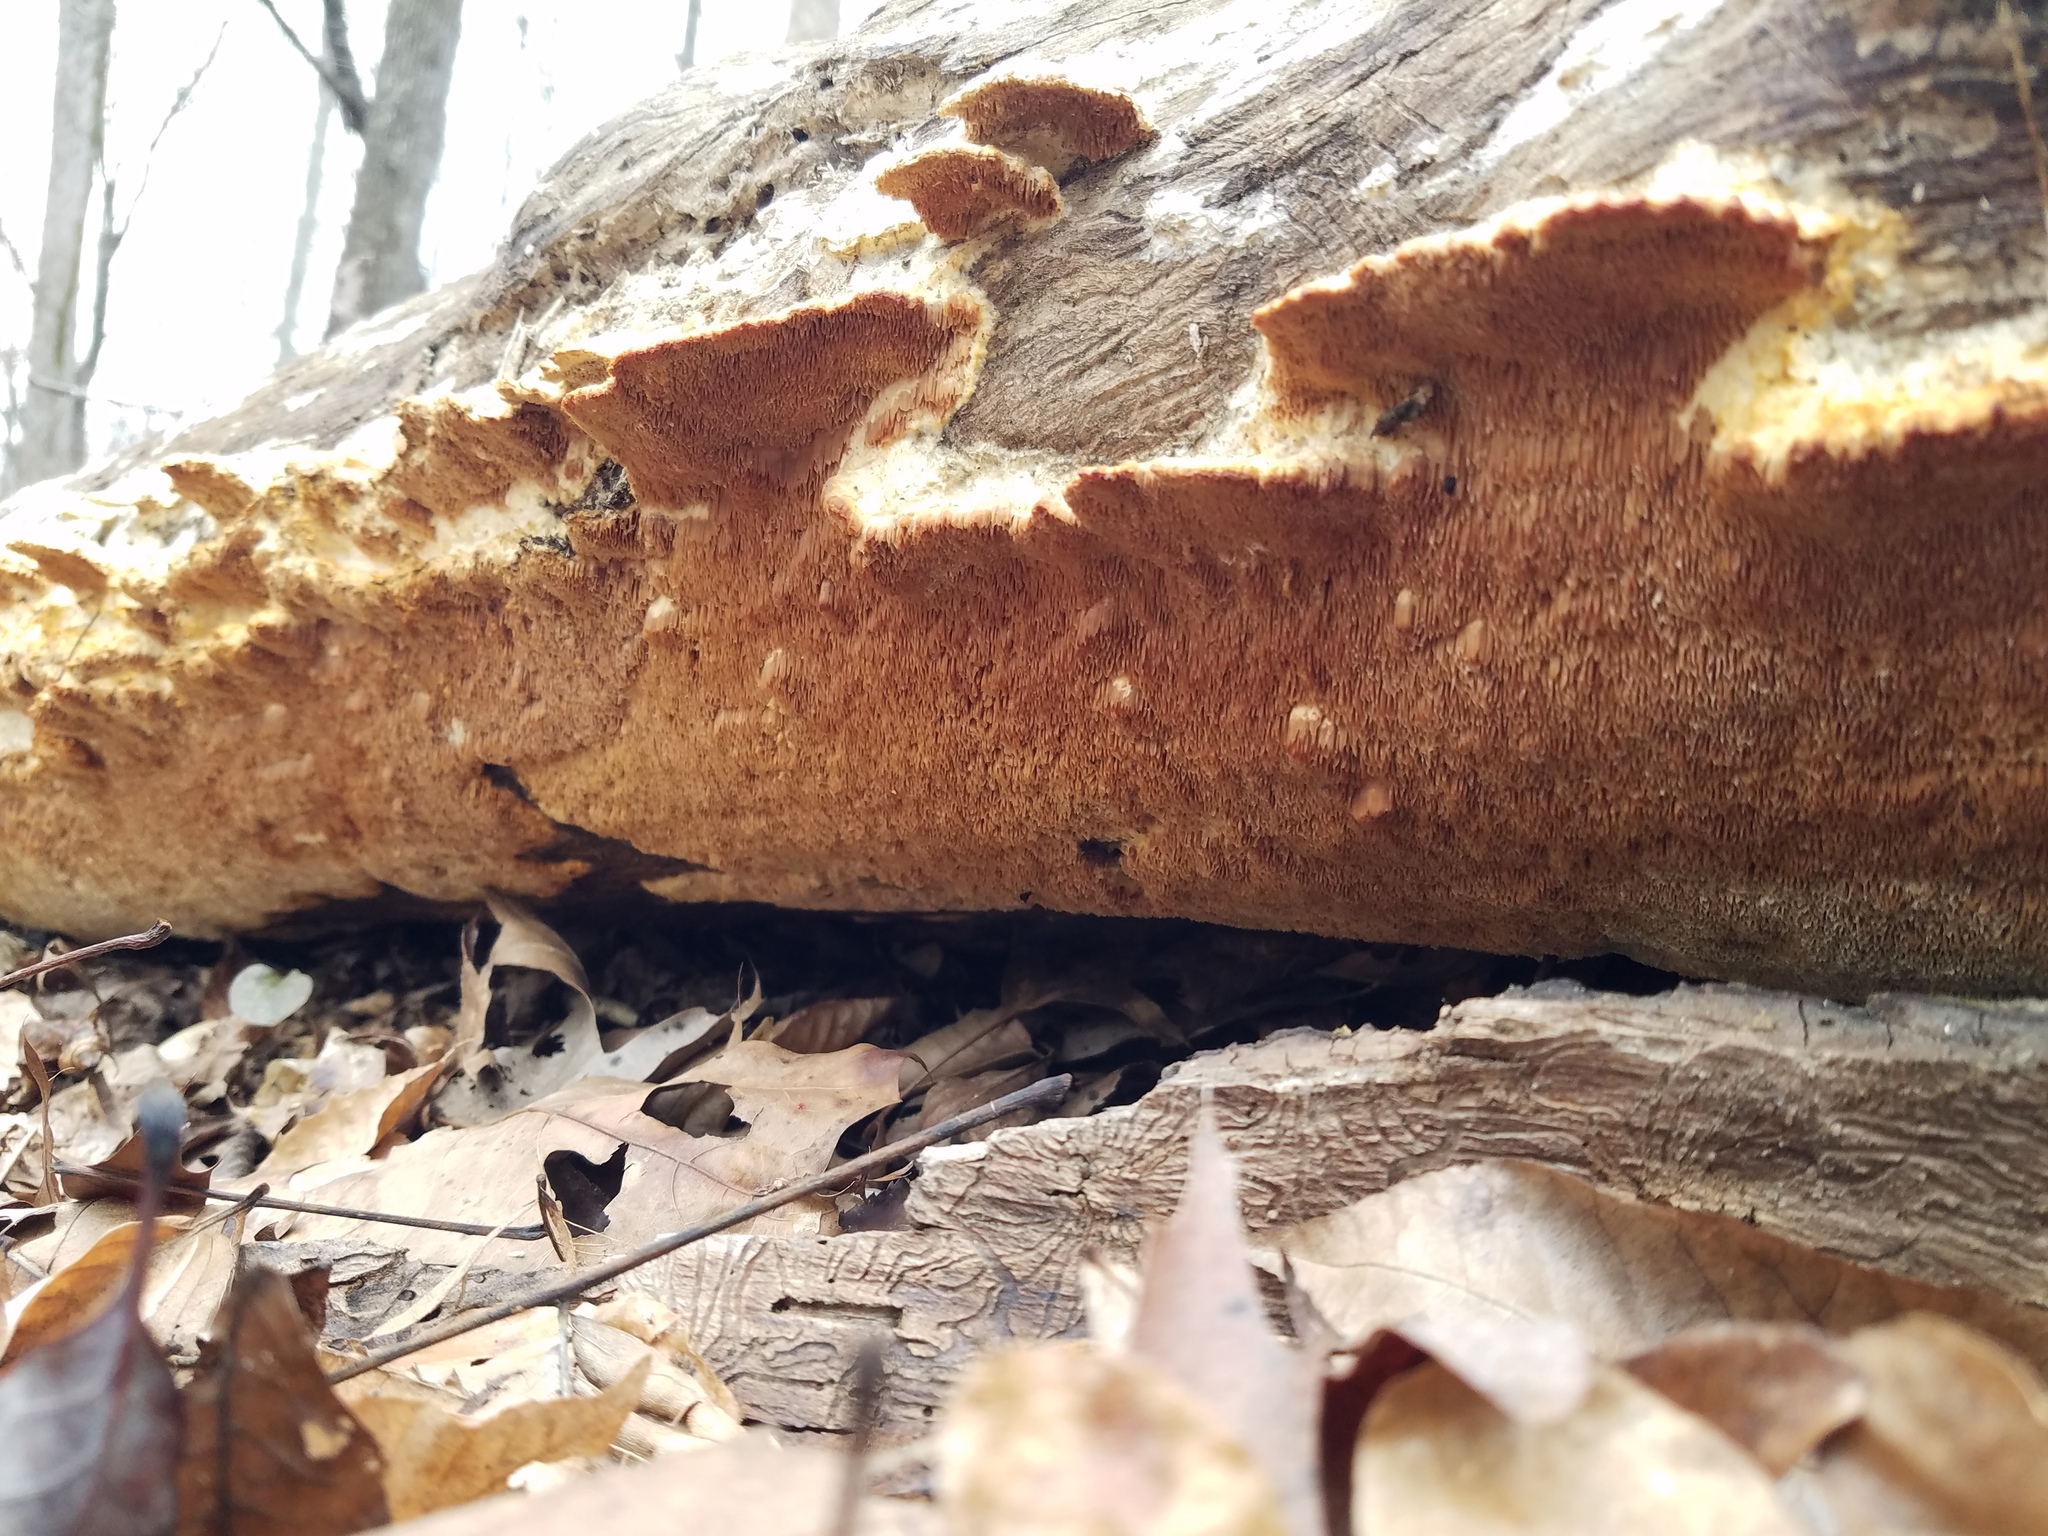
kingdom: Fungi
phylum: Basidiomycota
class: Agaricomycetes
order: Polyporales
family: Irpicaceae
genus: Trametopsis
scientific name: Trametopsis cervina
